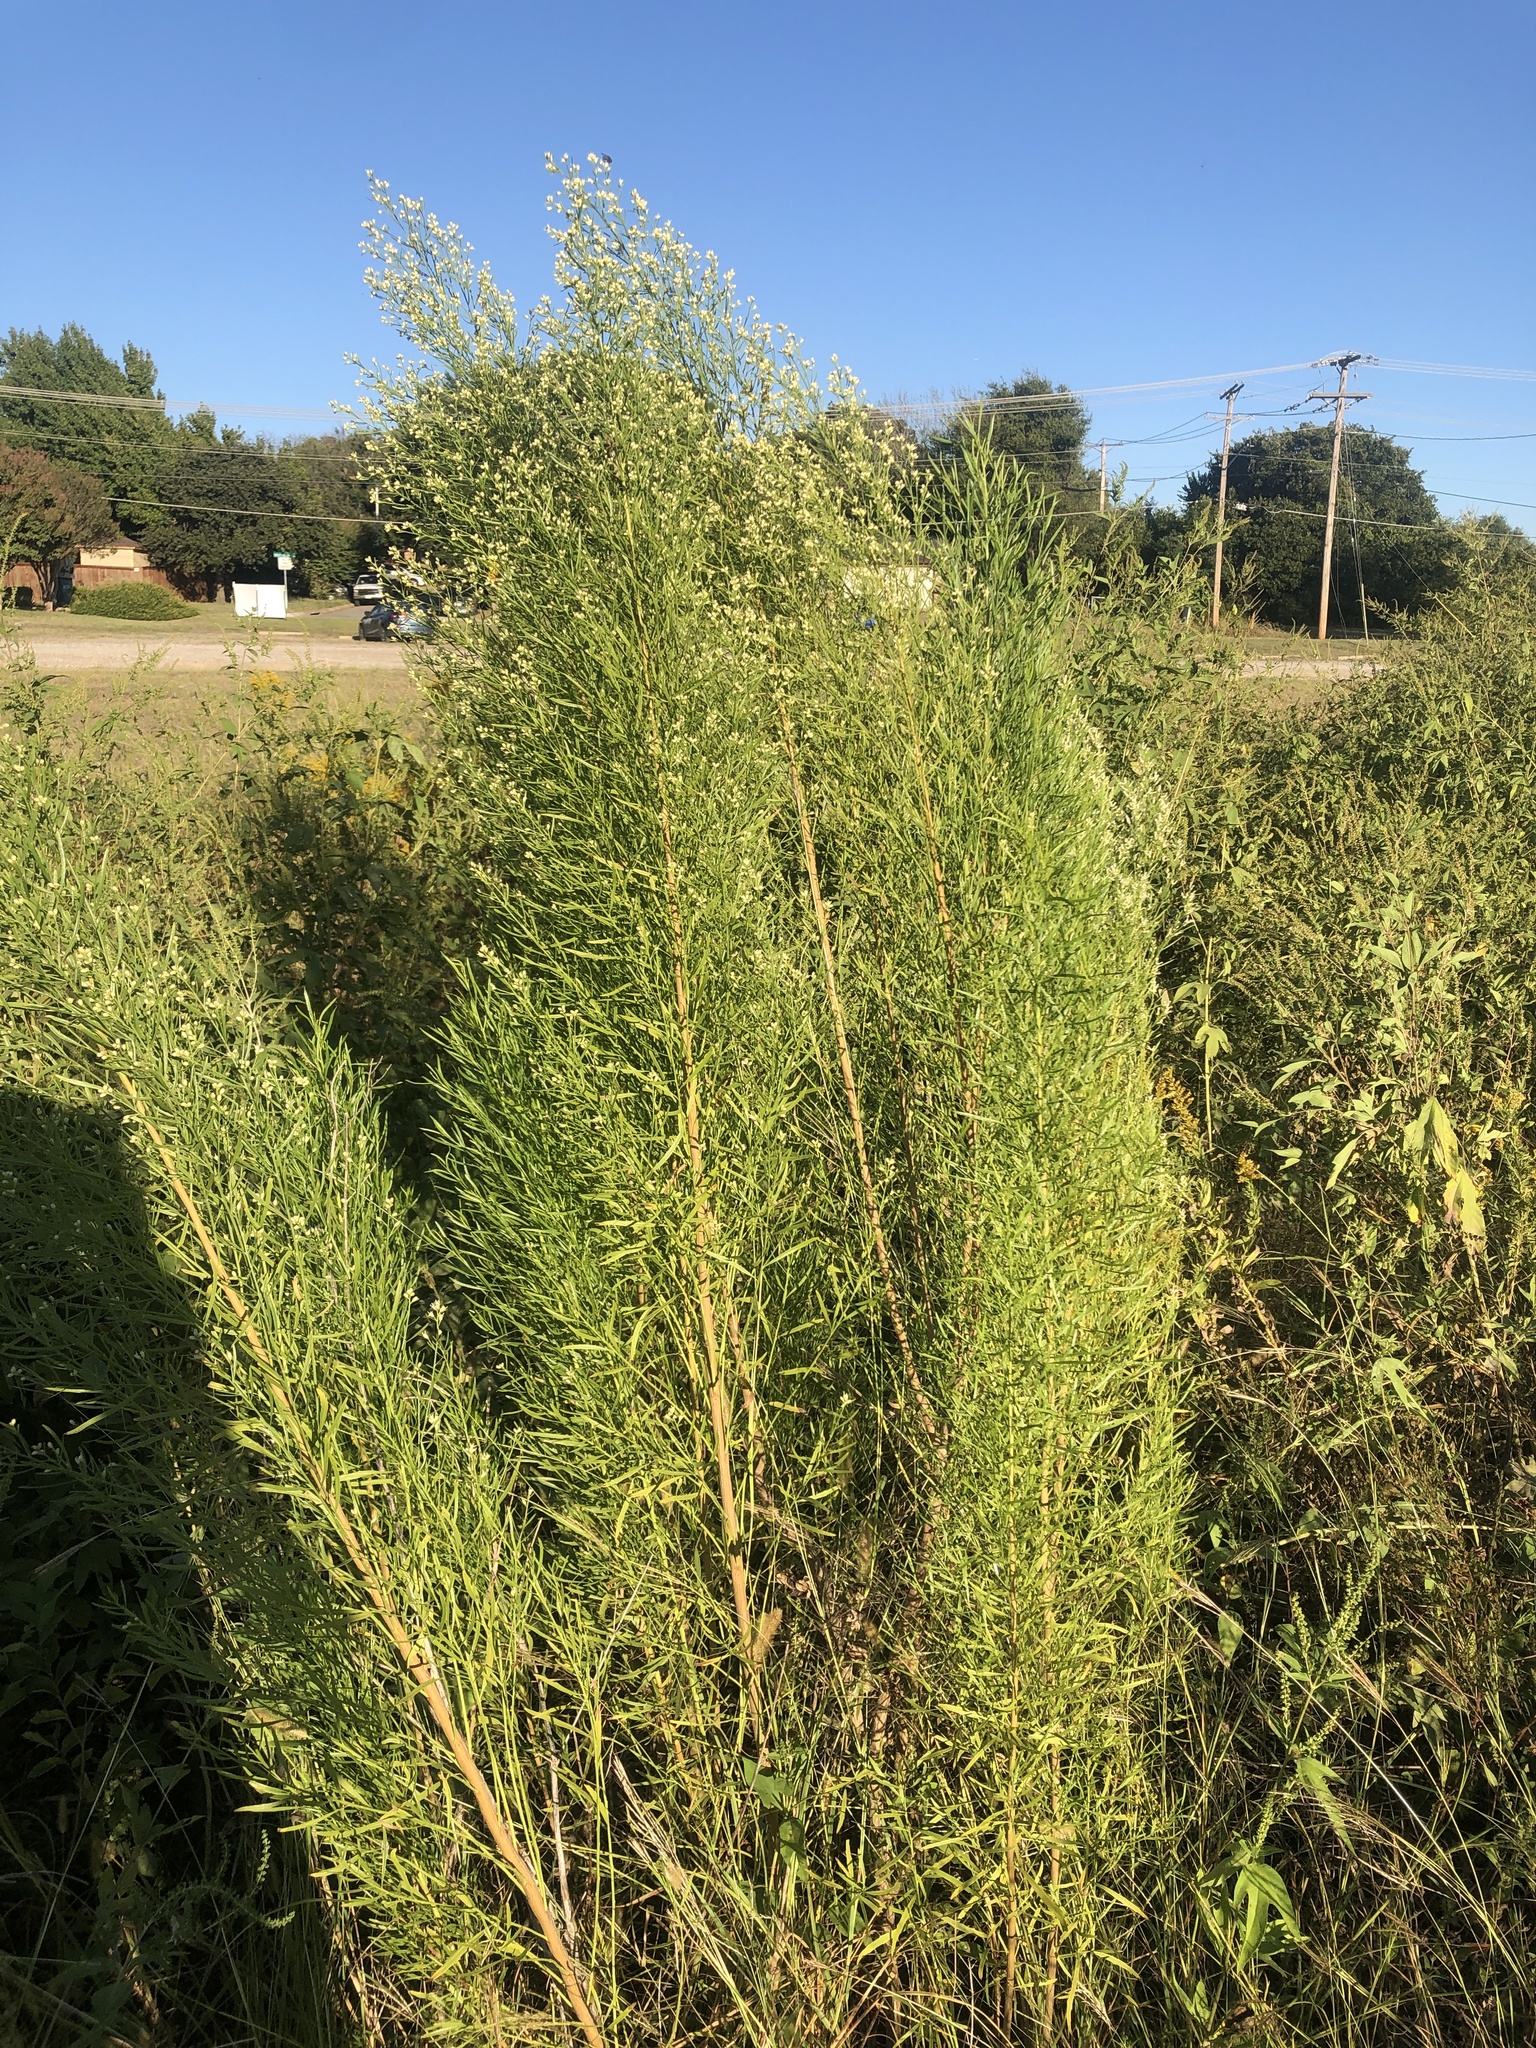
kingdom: Plantae
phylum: Tracheophyta
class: Magnoliopsida
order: Asterales
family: Asteraceae
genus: Baccharis
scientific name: Baccharis neglecta
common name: Roosevelt-weed
